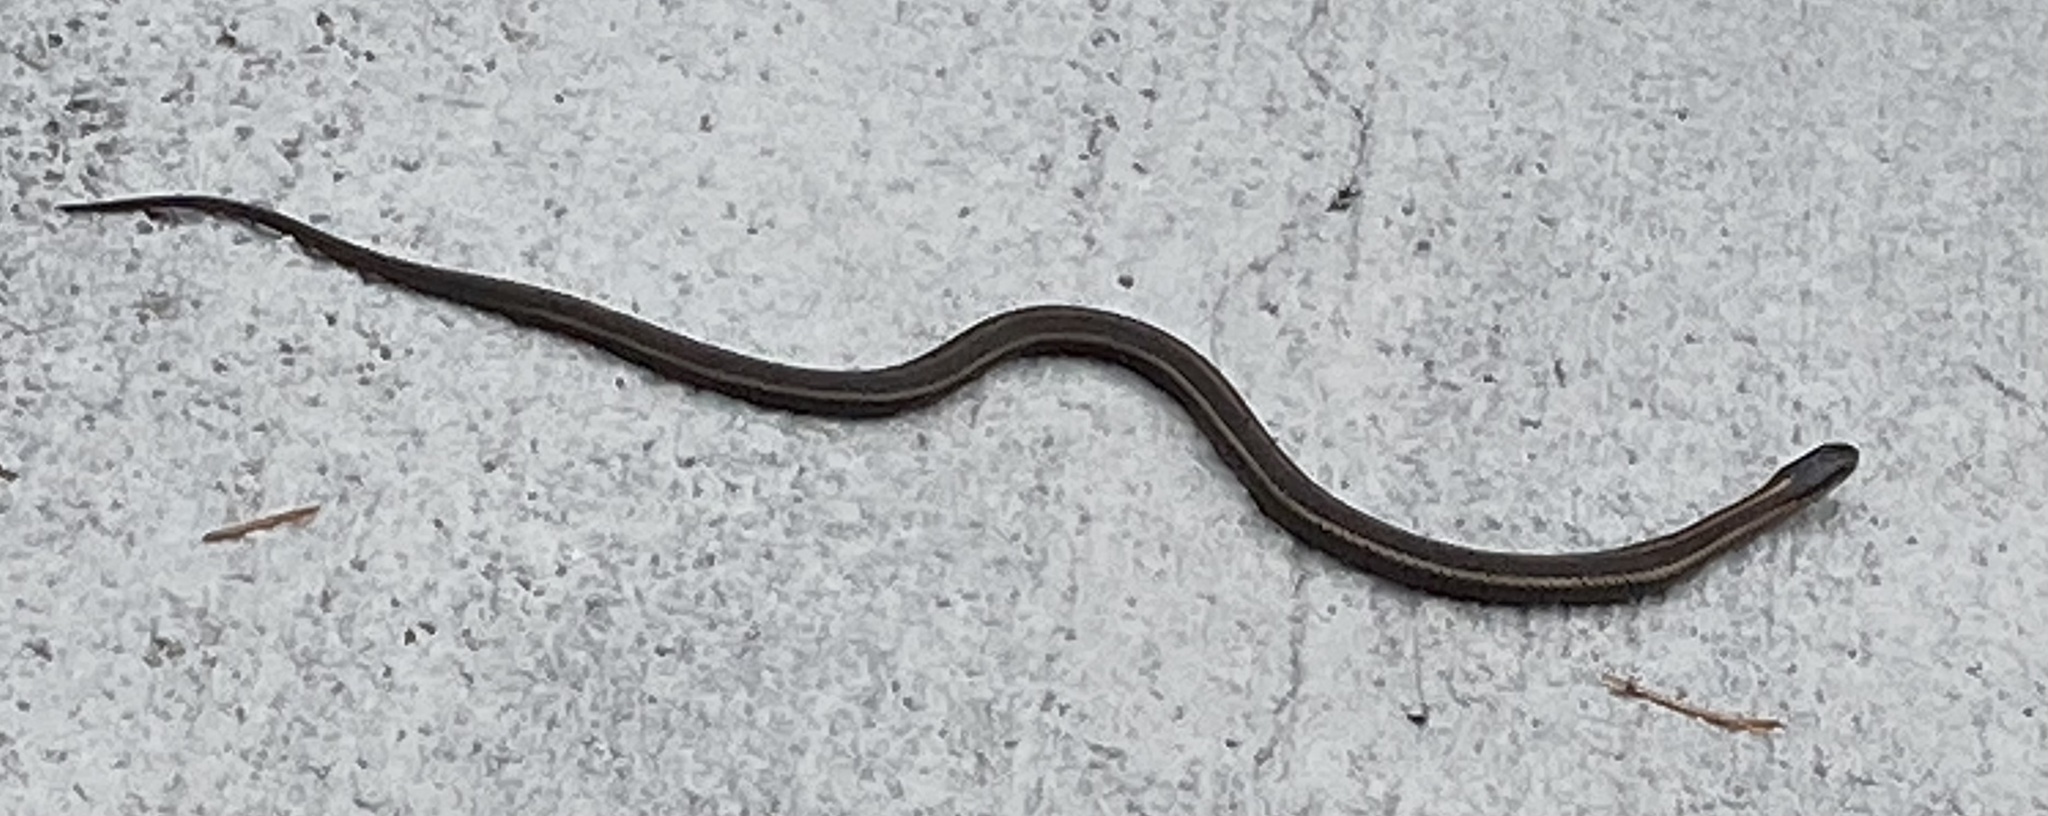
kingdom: Animalia
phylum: Chordata
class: Squamata
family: Colubridae
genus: Thamnophis
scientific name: Thamnophis ordinoides
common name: Northwestern garter snake
